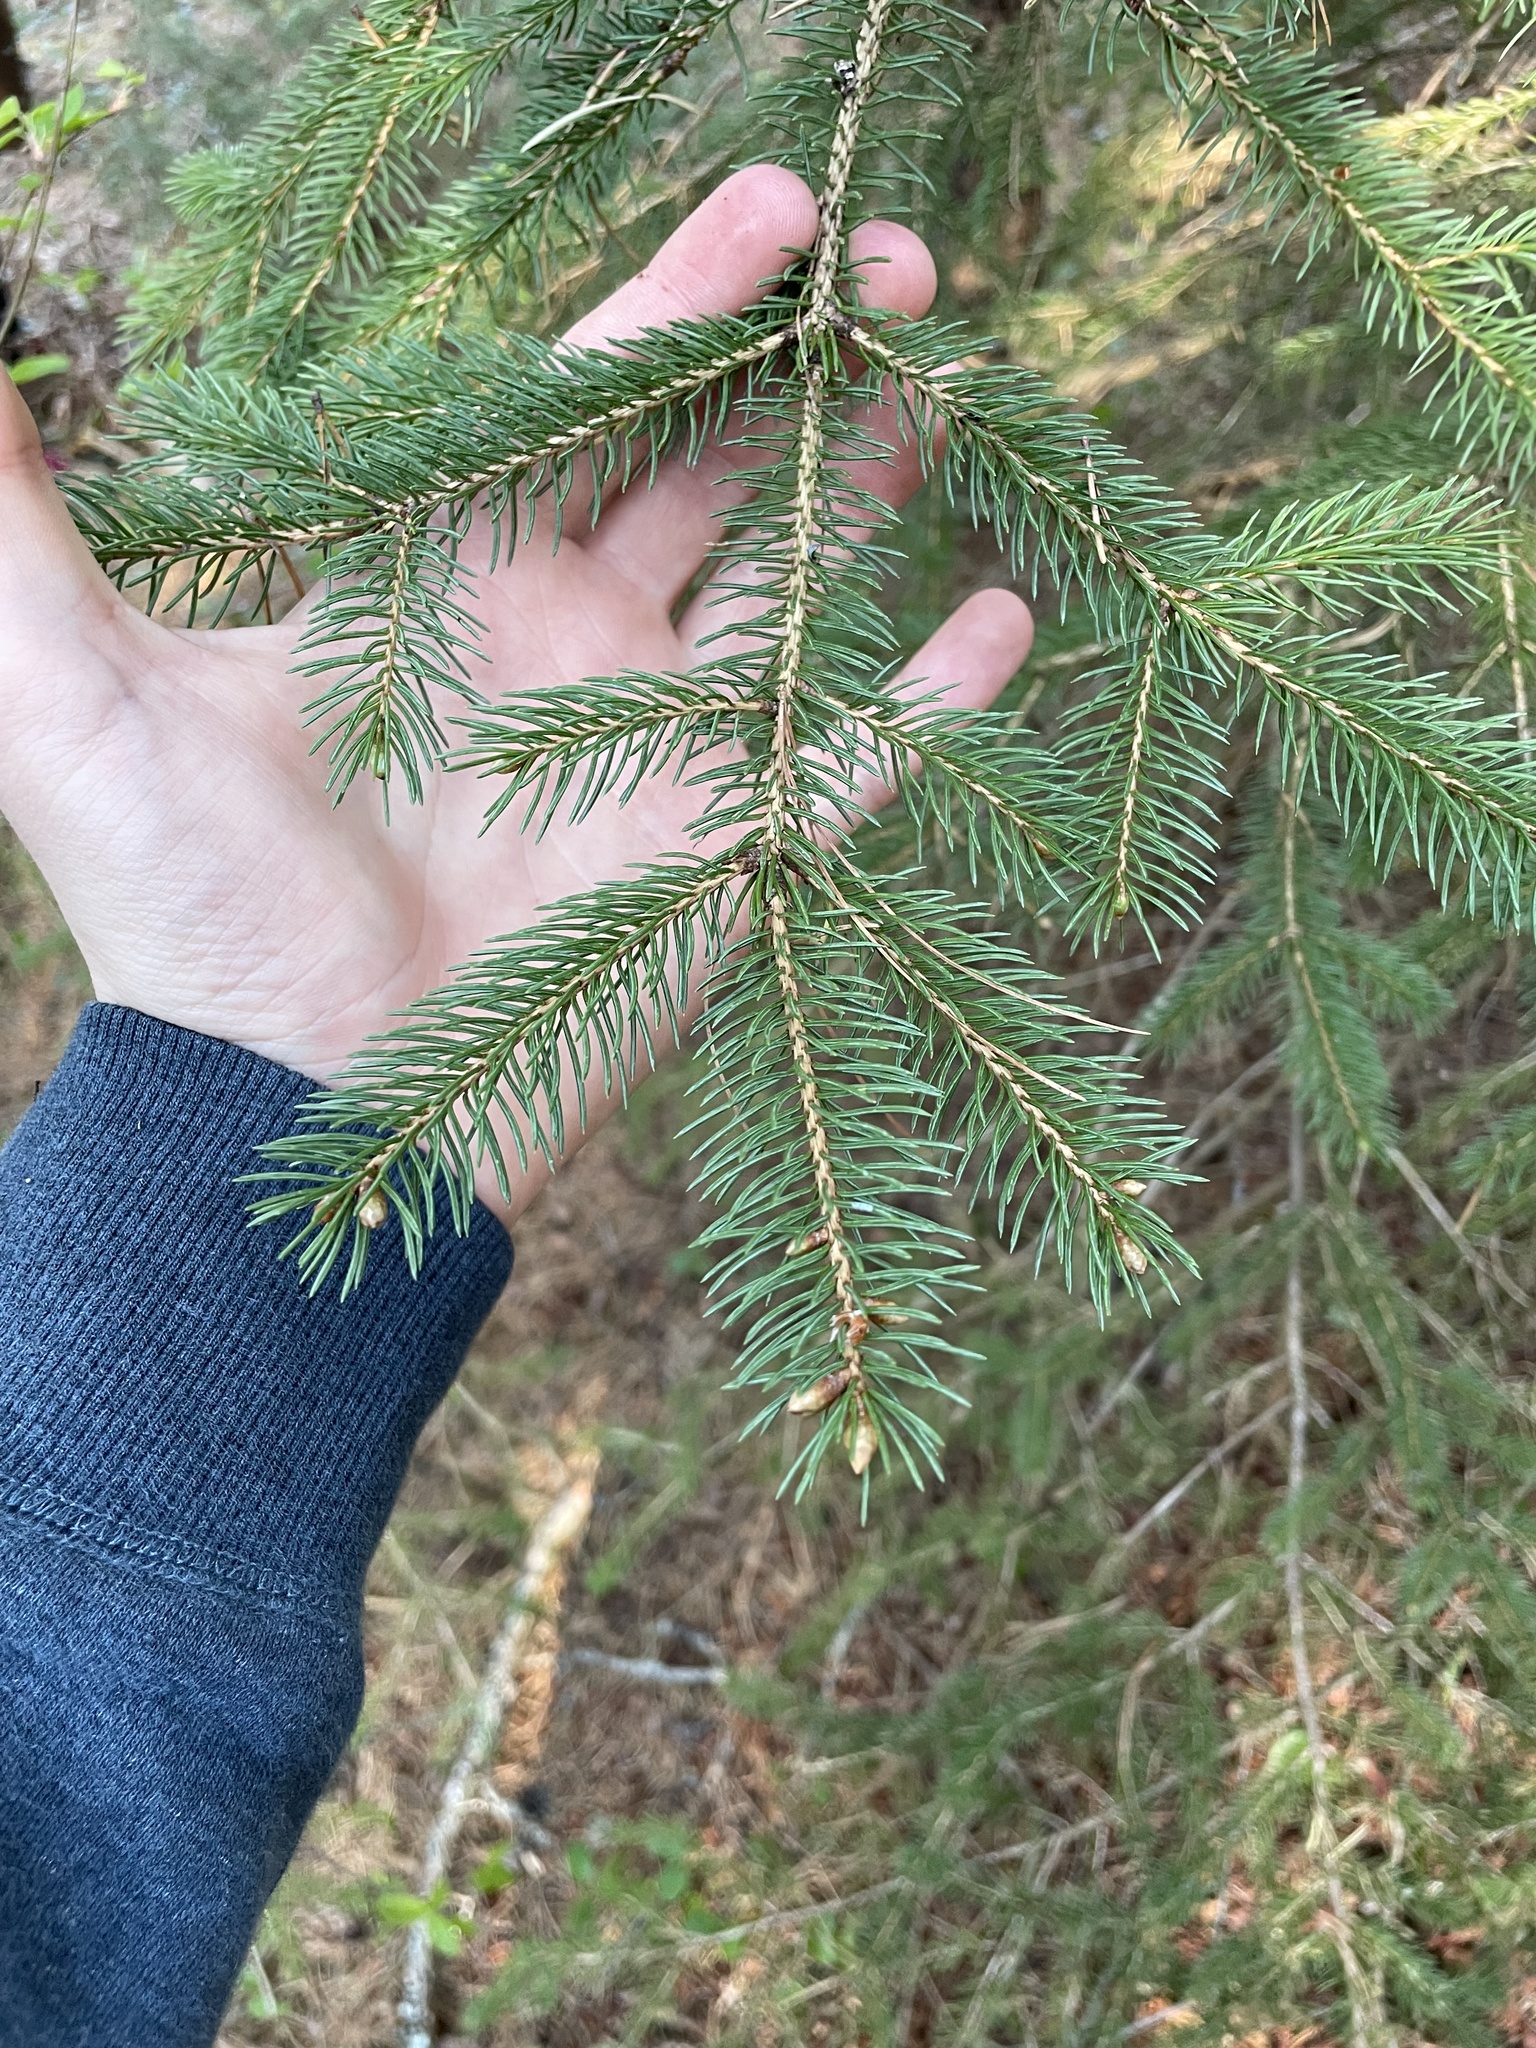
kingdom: Plantae
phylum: Tracheophyta
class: Pinopsida
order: Pinales
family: Pinaceae
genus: Picea
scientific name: Picea glauca
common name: White spruce
